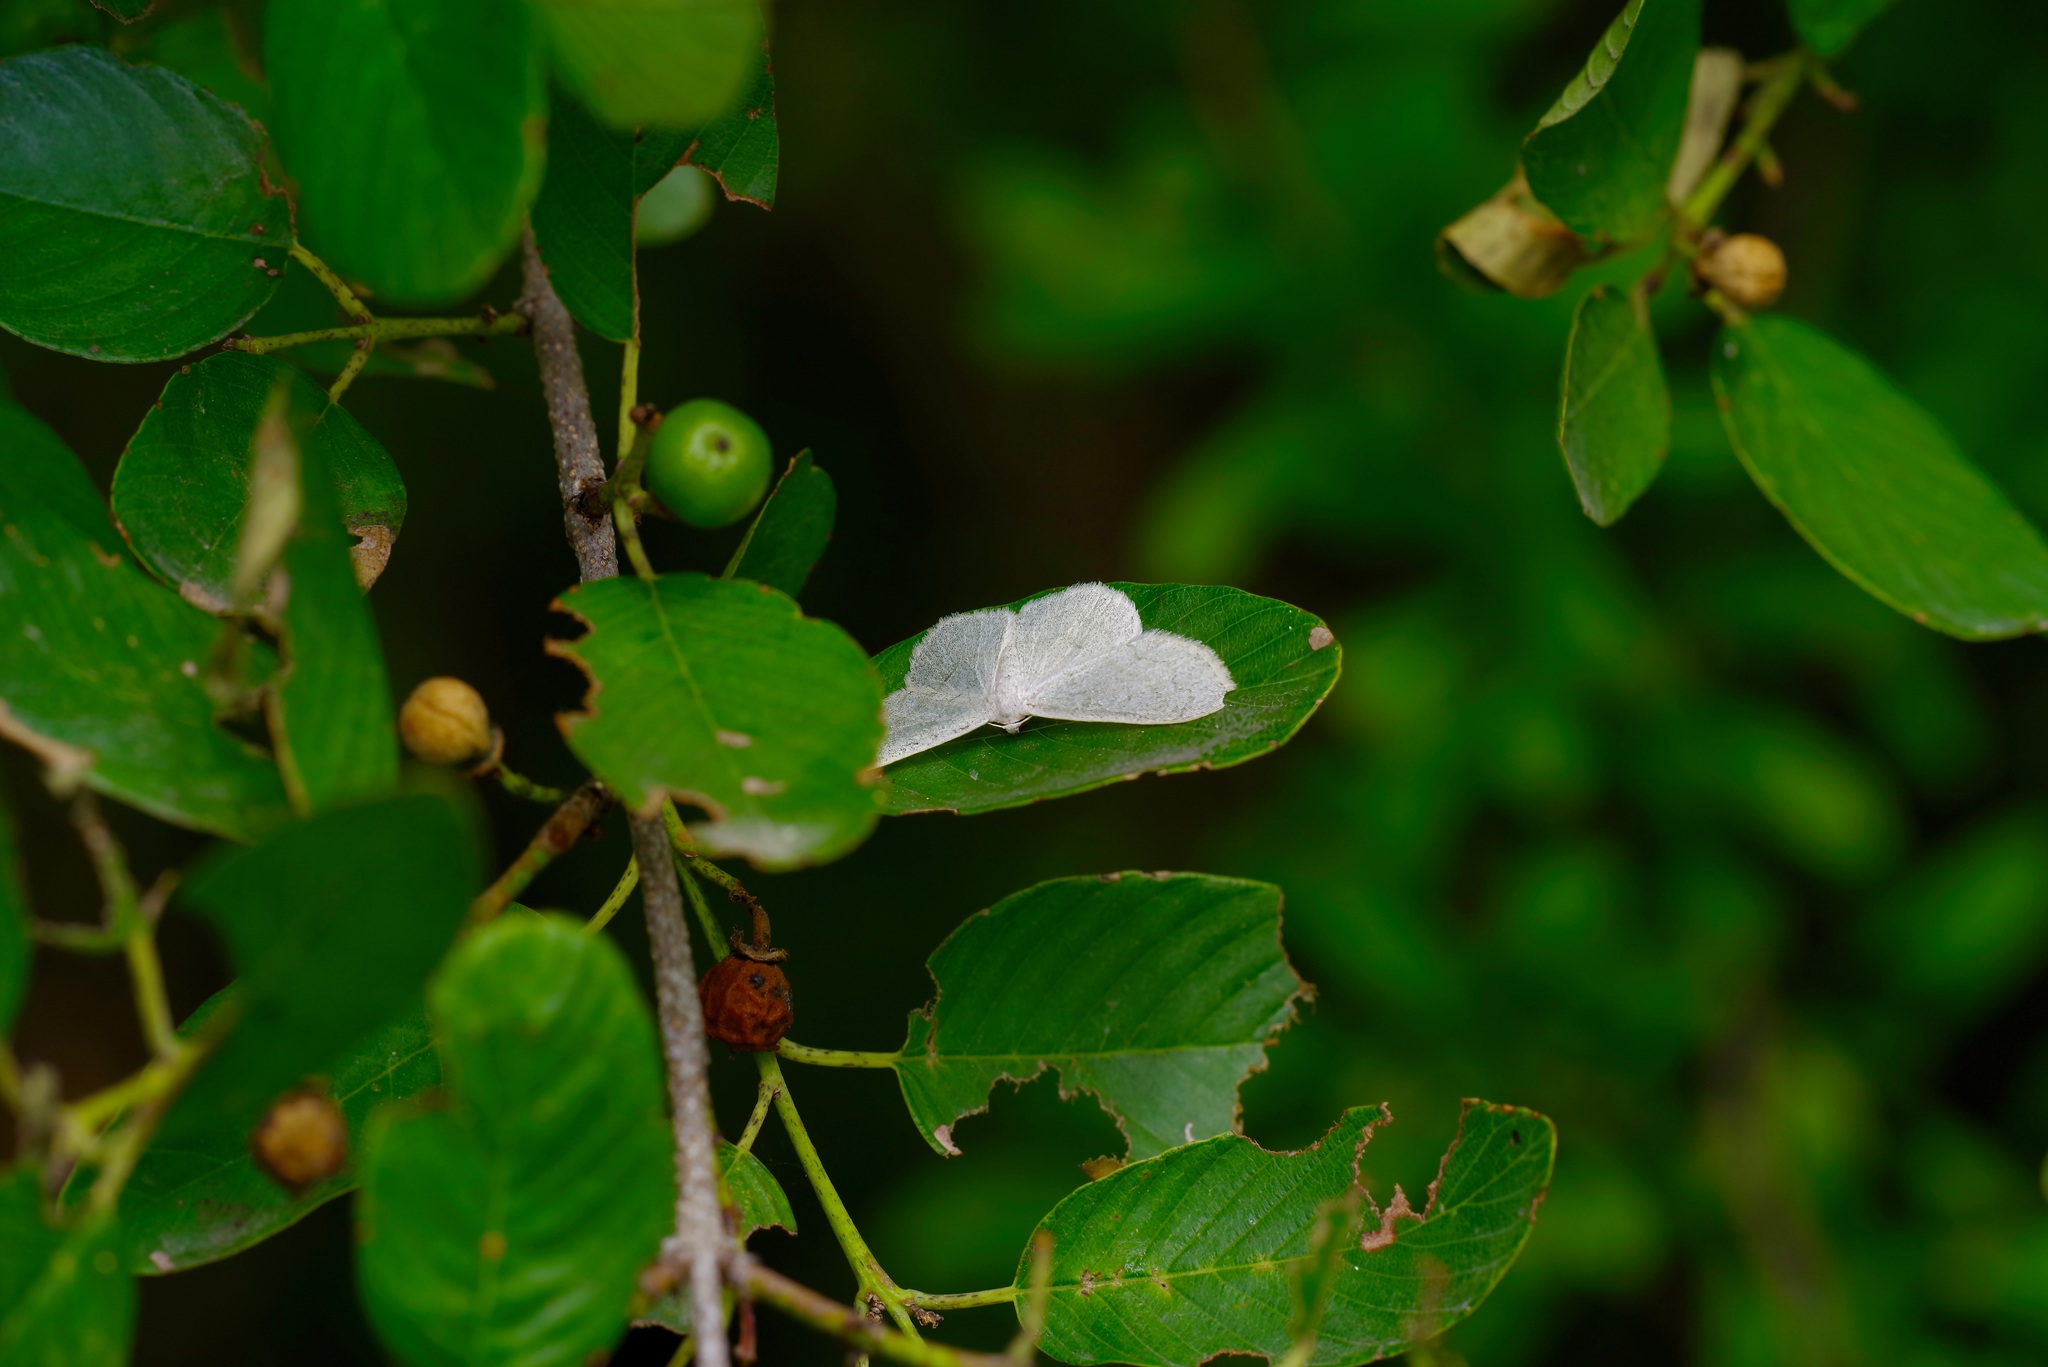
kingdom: Animalia
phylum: Arthropoda
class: Insecta
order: Lepidoptera
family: Geometridae
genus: Acratodes
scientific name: Acratodes suavata
